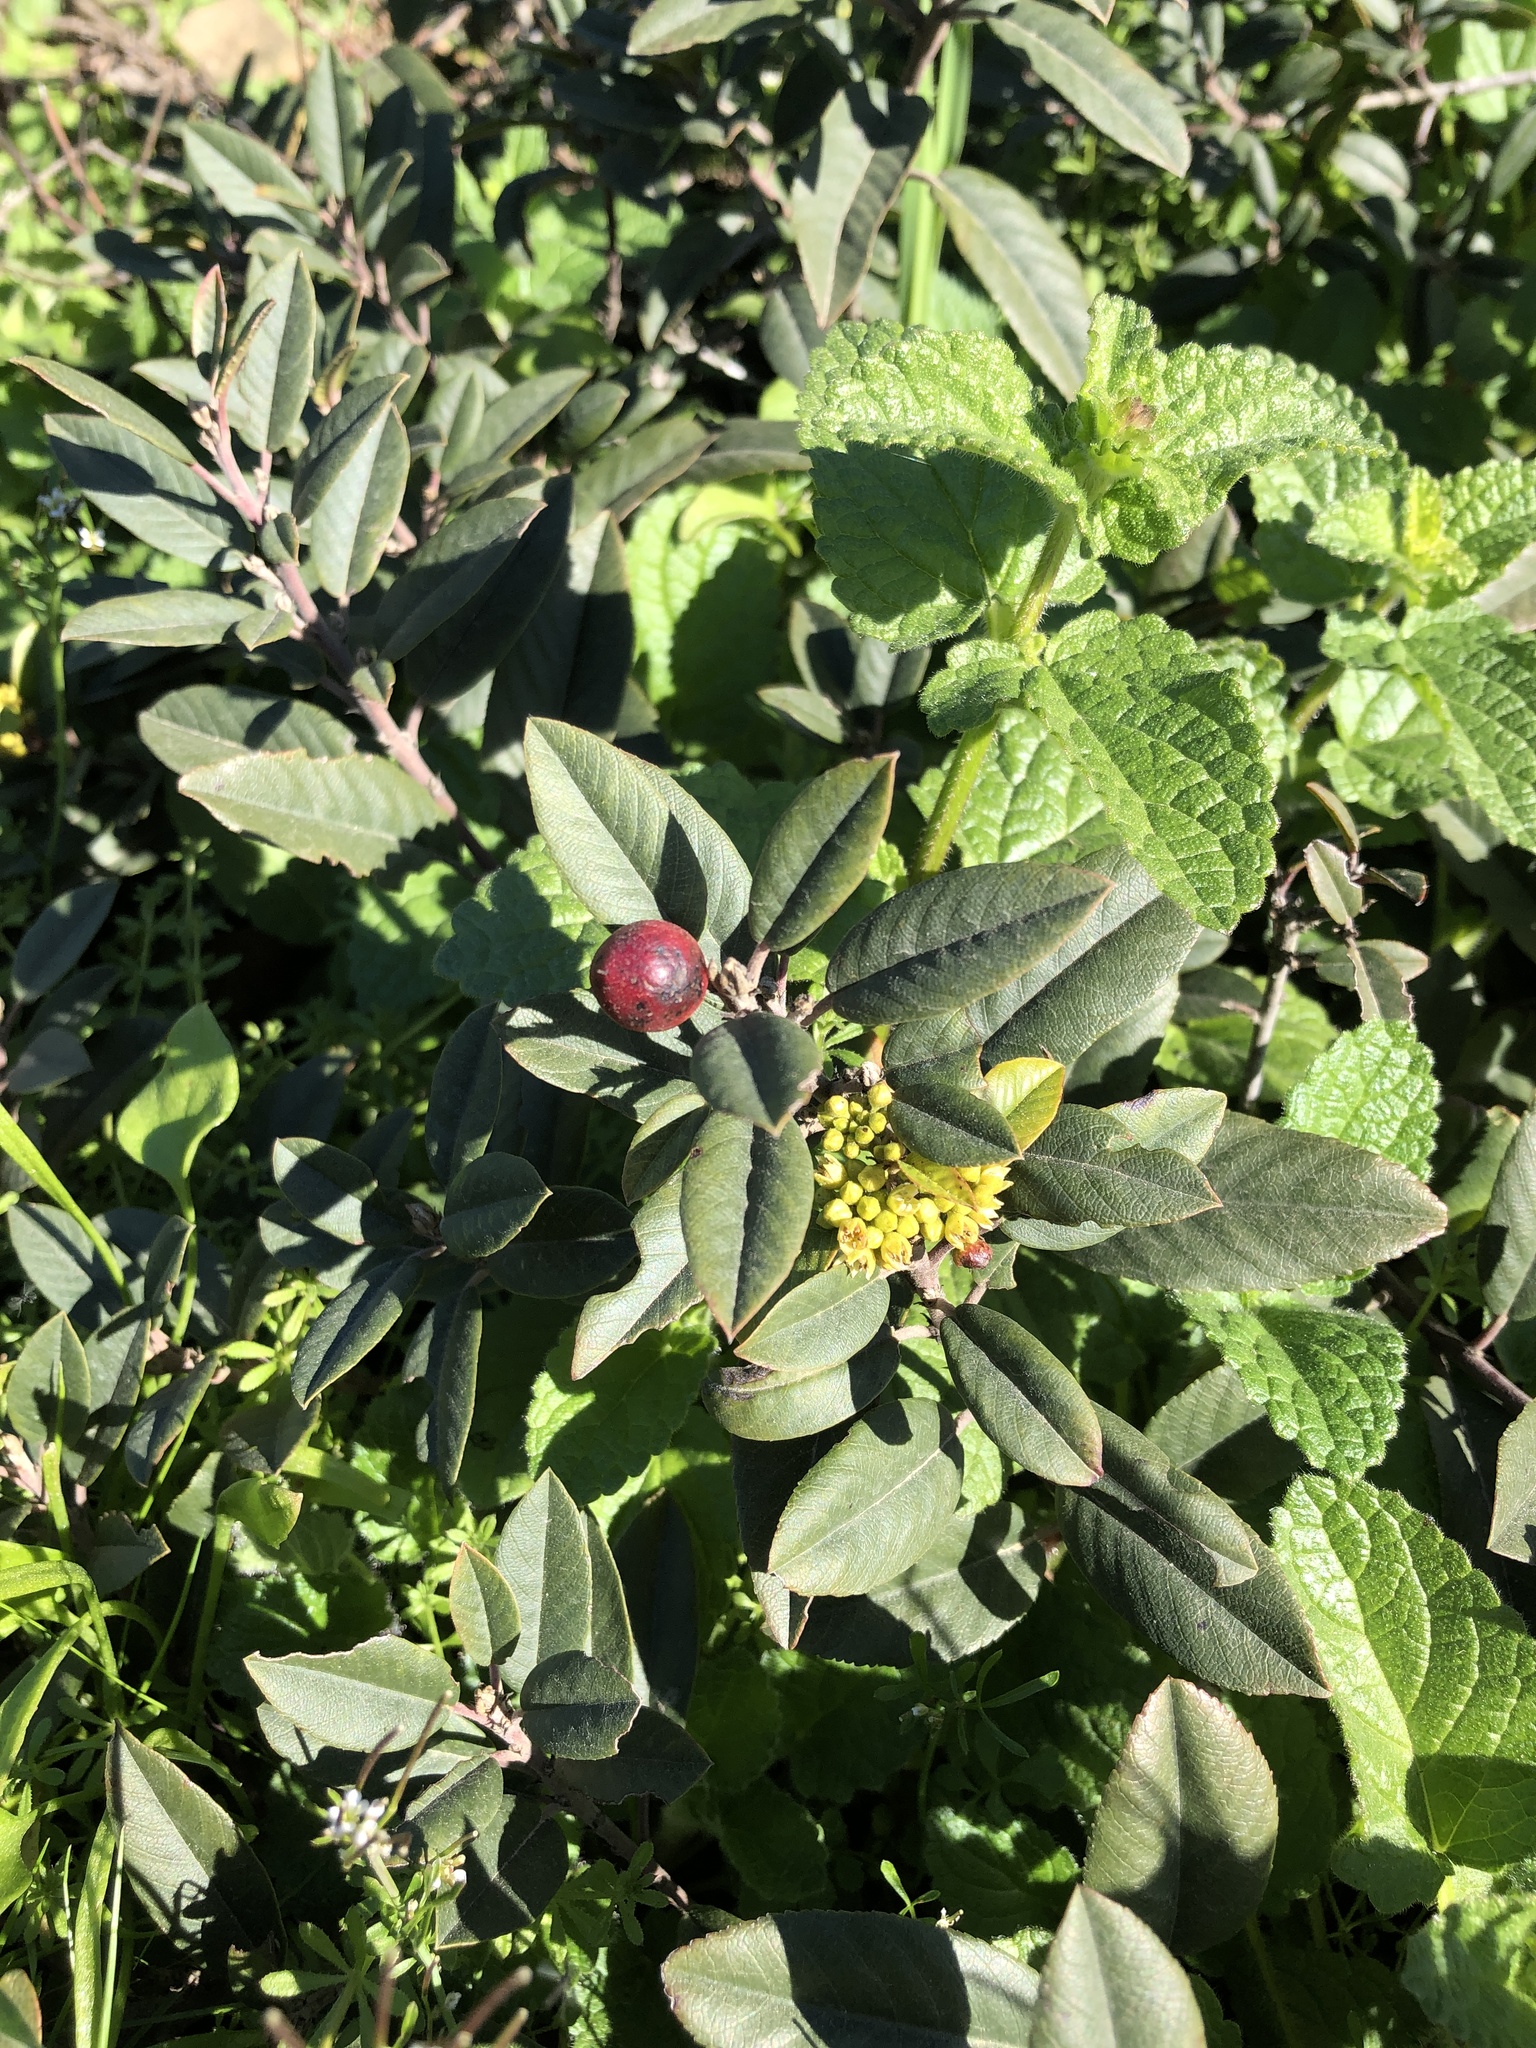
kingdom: Plantae
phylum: Tracheophyta
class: Magnoliopsida
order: Rosales
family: Rhamnaceae
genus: Frangula
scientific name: Frangula californica
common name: California buckthorn
